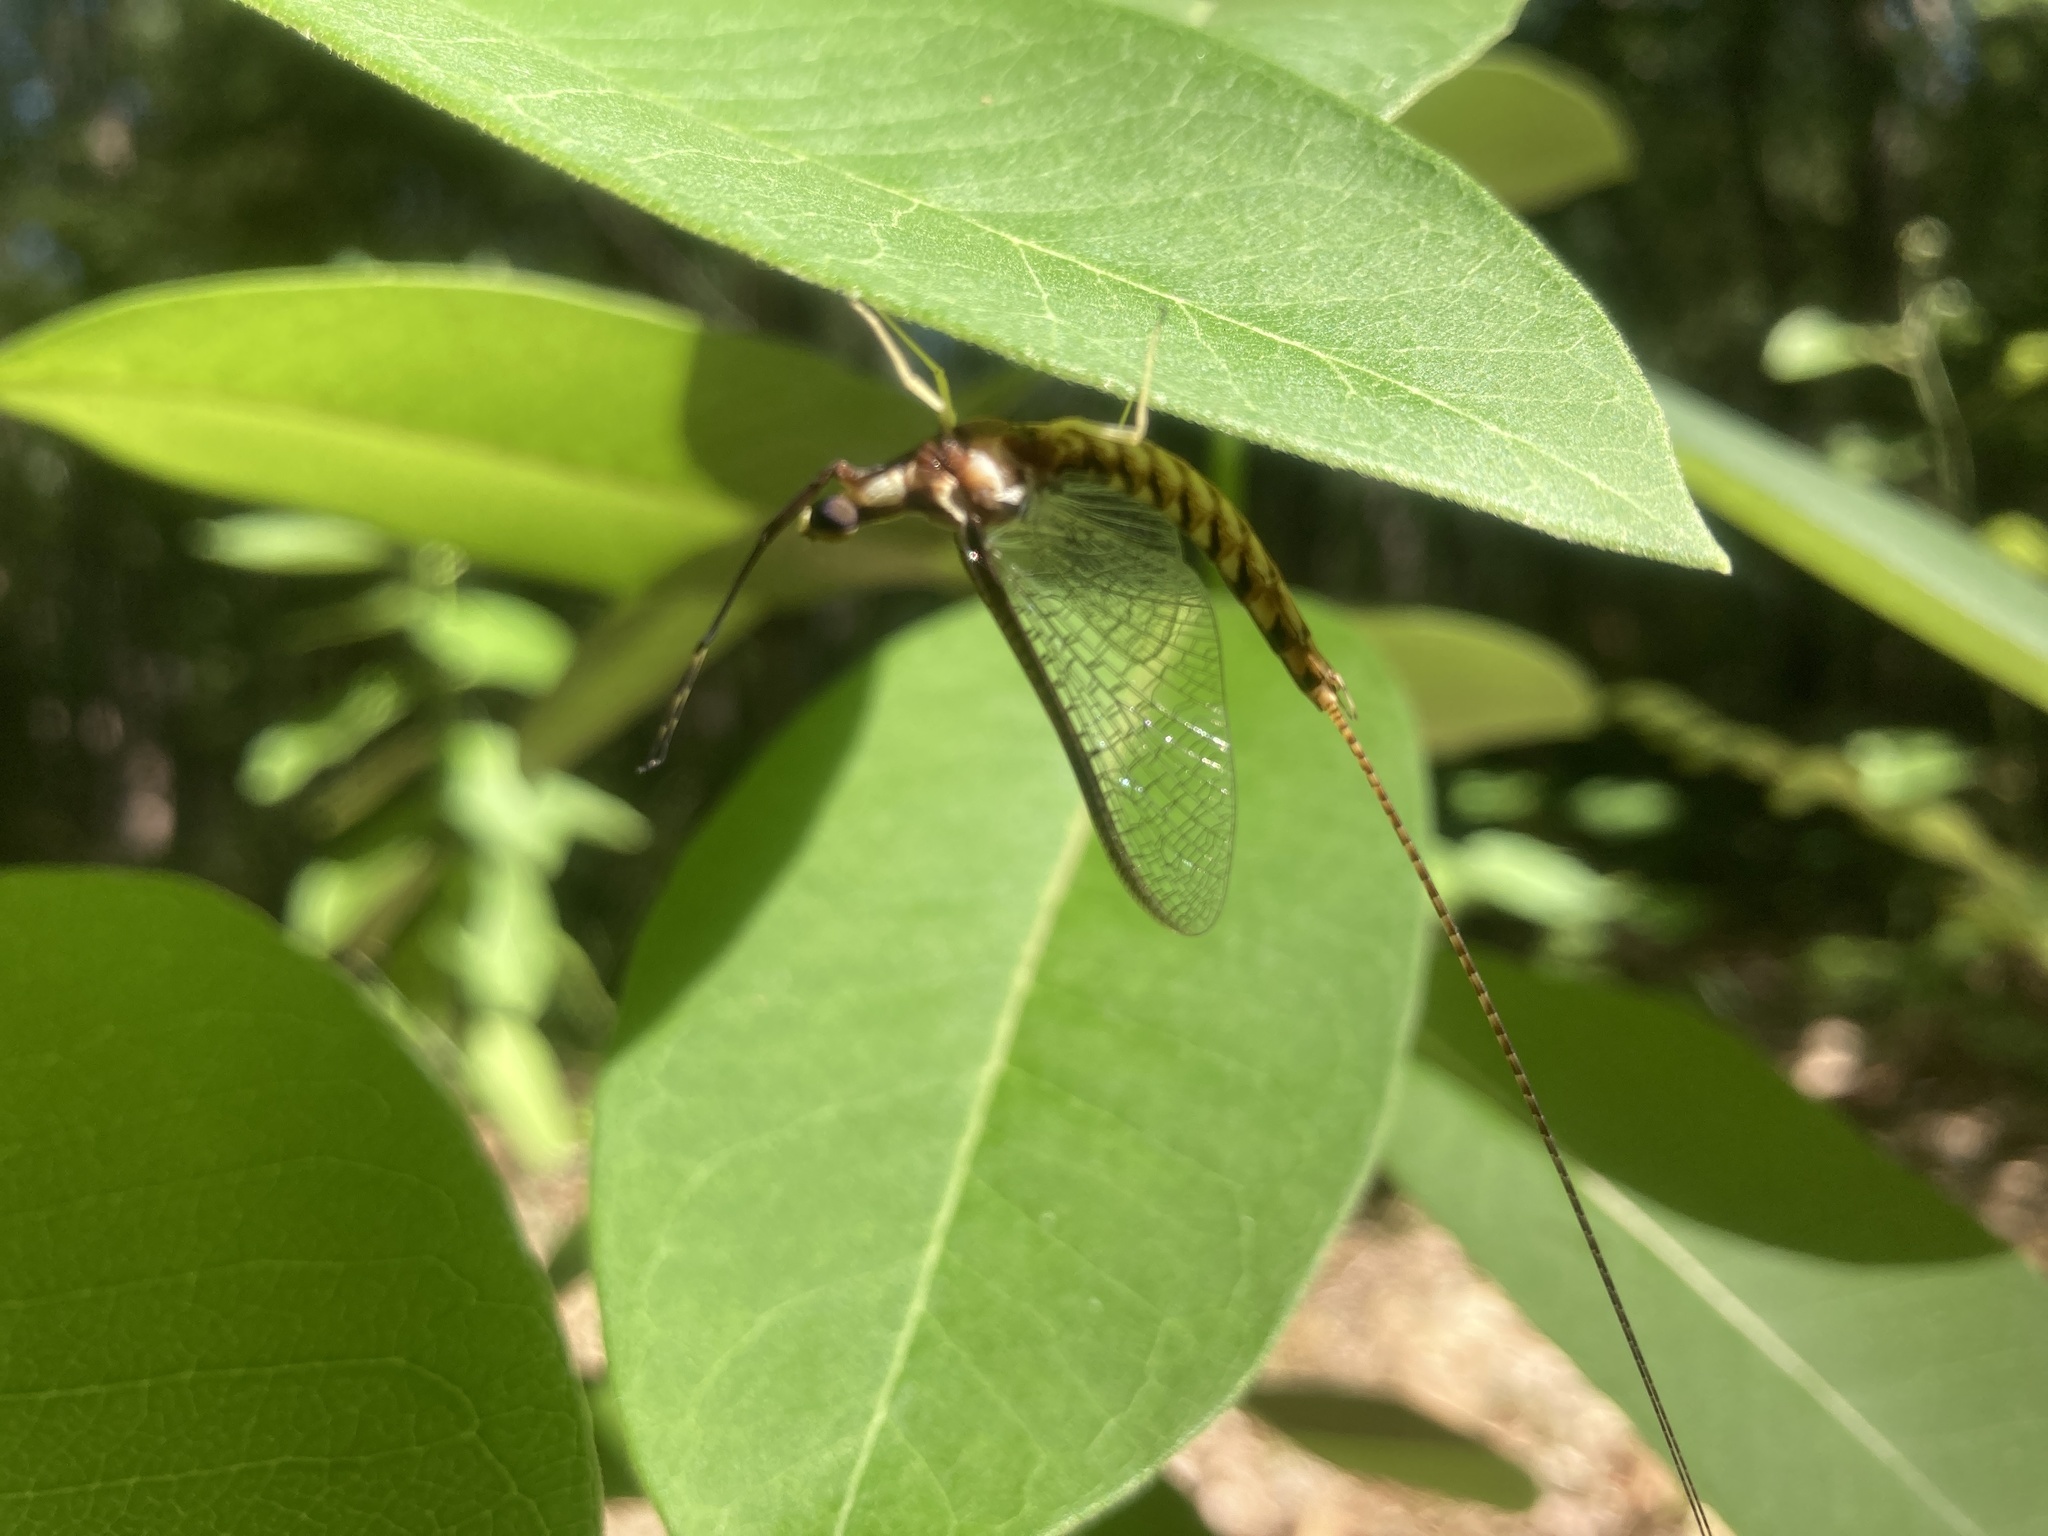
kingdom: Animalia
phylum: Arthropoda
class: Insecta
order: Ephemeroptera
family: Ephemeridae
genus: Hexagenia
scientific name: Hexagenia limbata
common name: Giant mayfly
